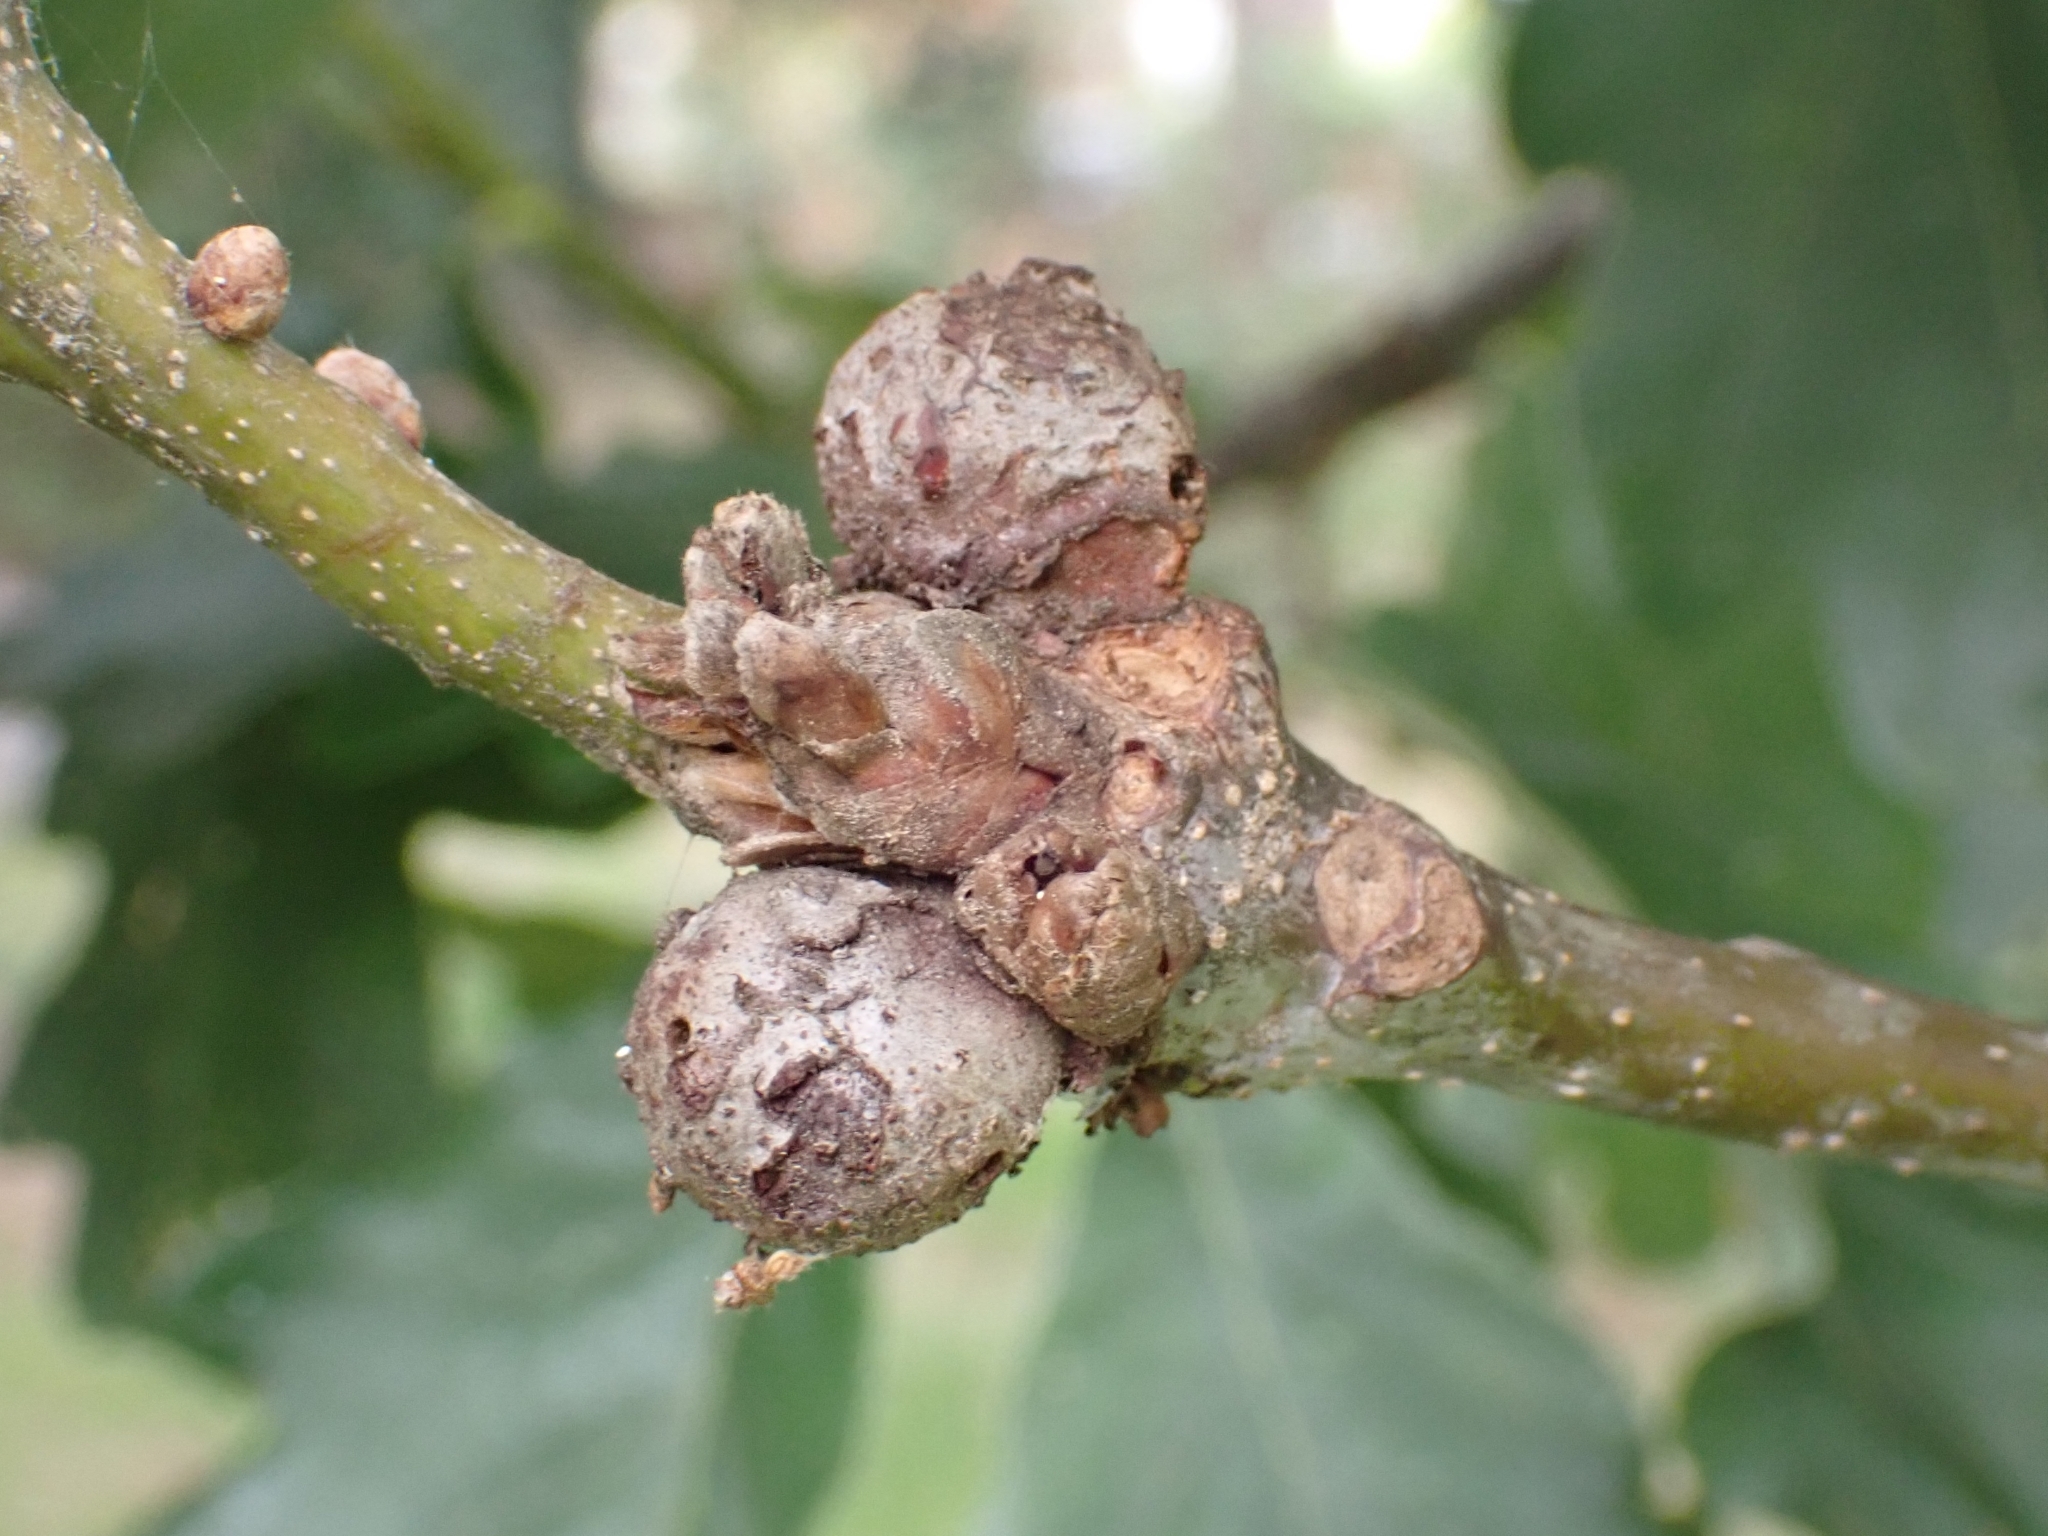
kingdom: Animalia
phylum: Arthropoda
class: Insecta
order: Hymenoptera
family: Cynipidae
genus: Andricus
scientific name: Andricus lignicolus
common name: Cola-nut gall
